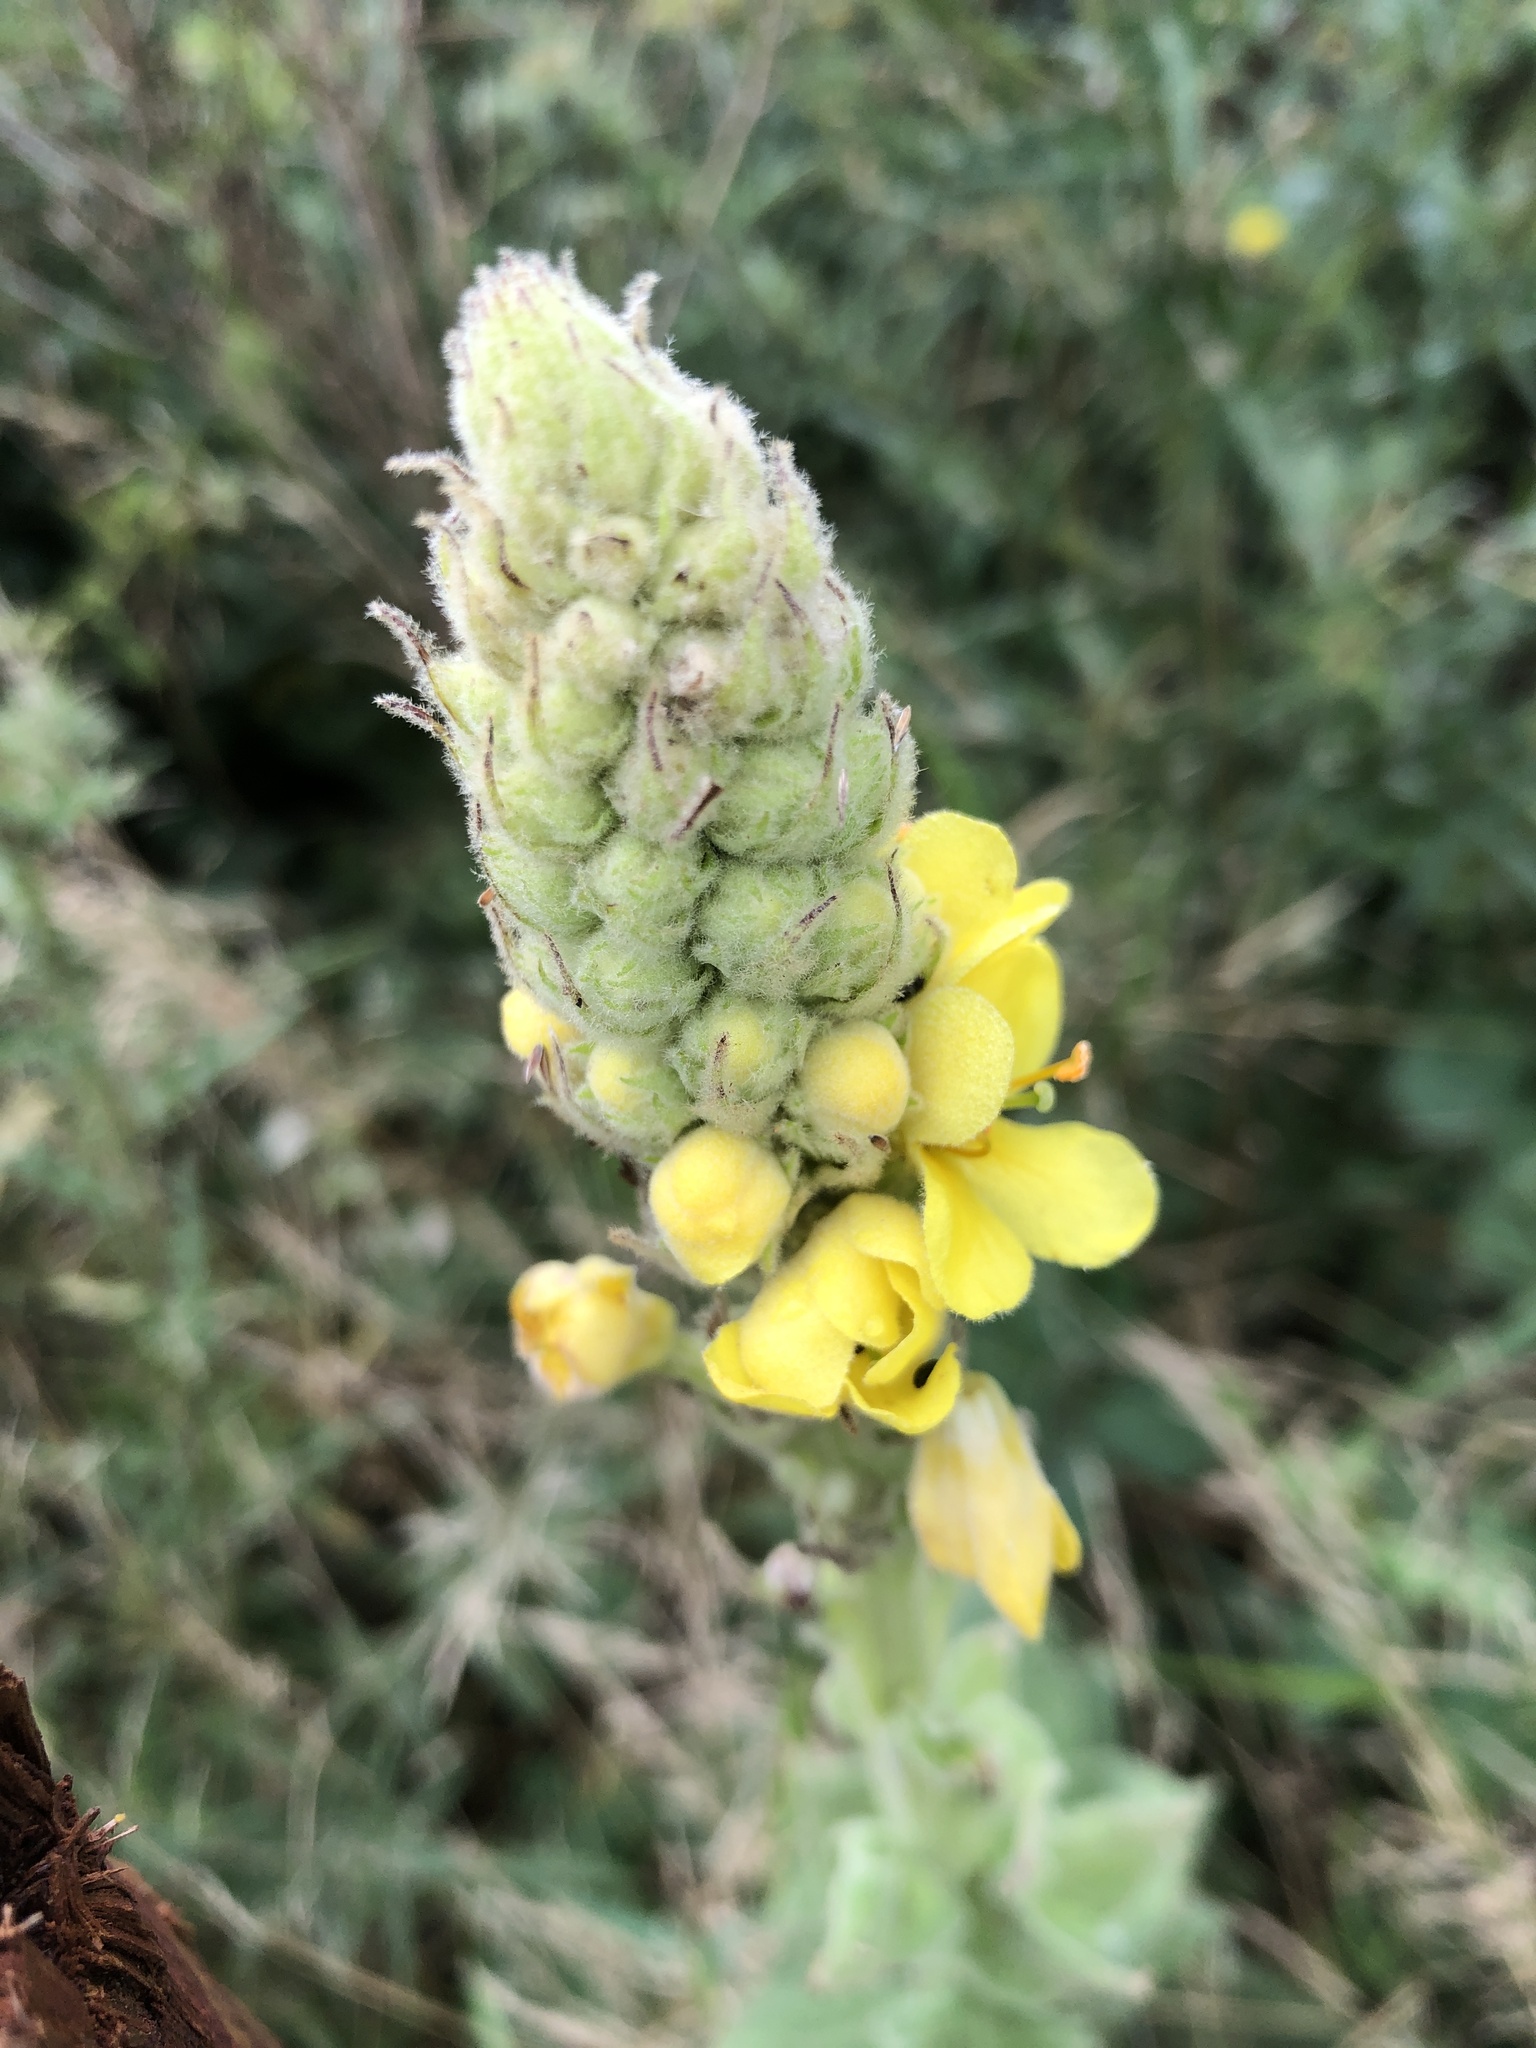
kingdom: Plantae
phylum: Tracheophyta
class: Magnoliopsida
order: Lamiales
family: Scrophulariaceae
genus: Verbascum
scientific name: Verbascum thapsus
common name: Common mullein
